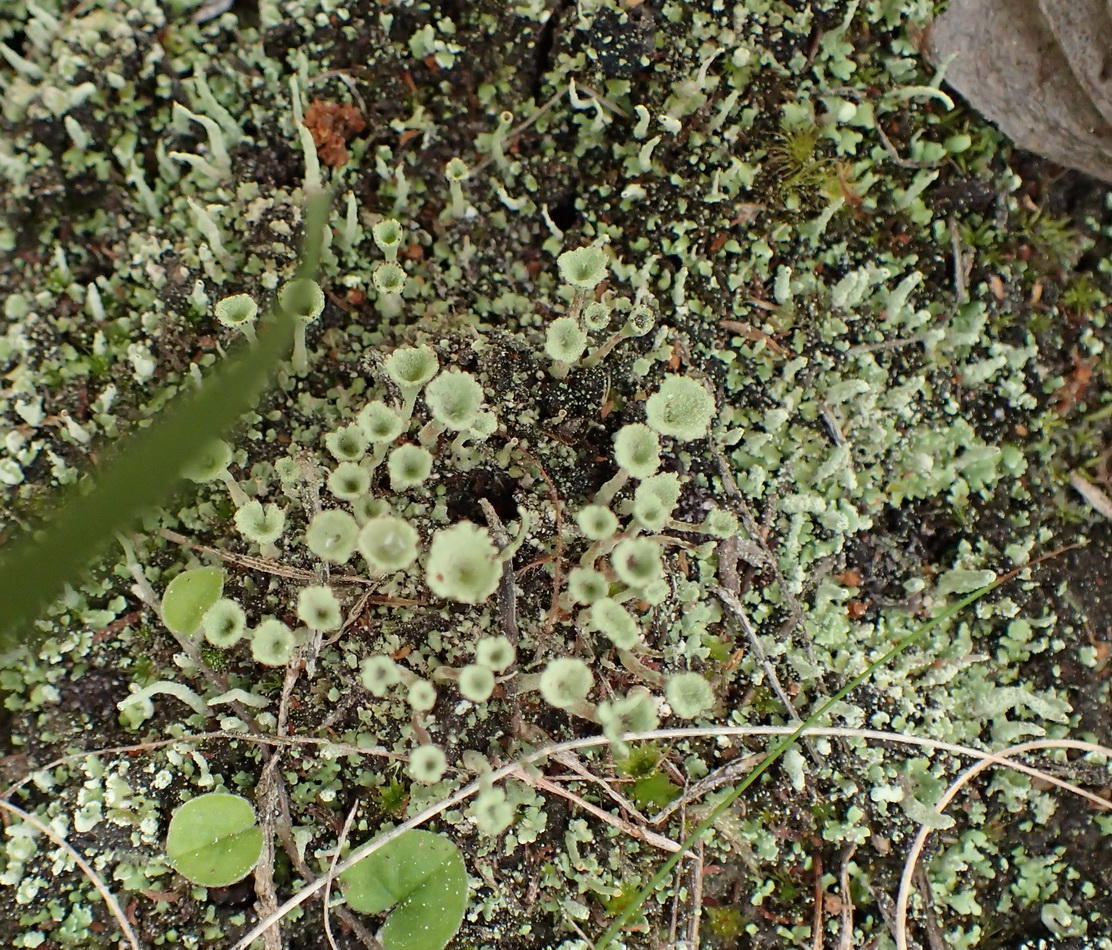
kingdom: Fungi
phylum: Ascomycota
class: Lecanoromycetes
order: Lecanorales
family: Cladoniaceae
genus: Cladonia
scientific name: Cladonia fimbriata
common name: Powdered trumpet lichen
